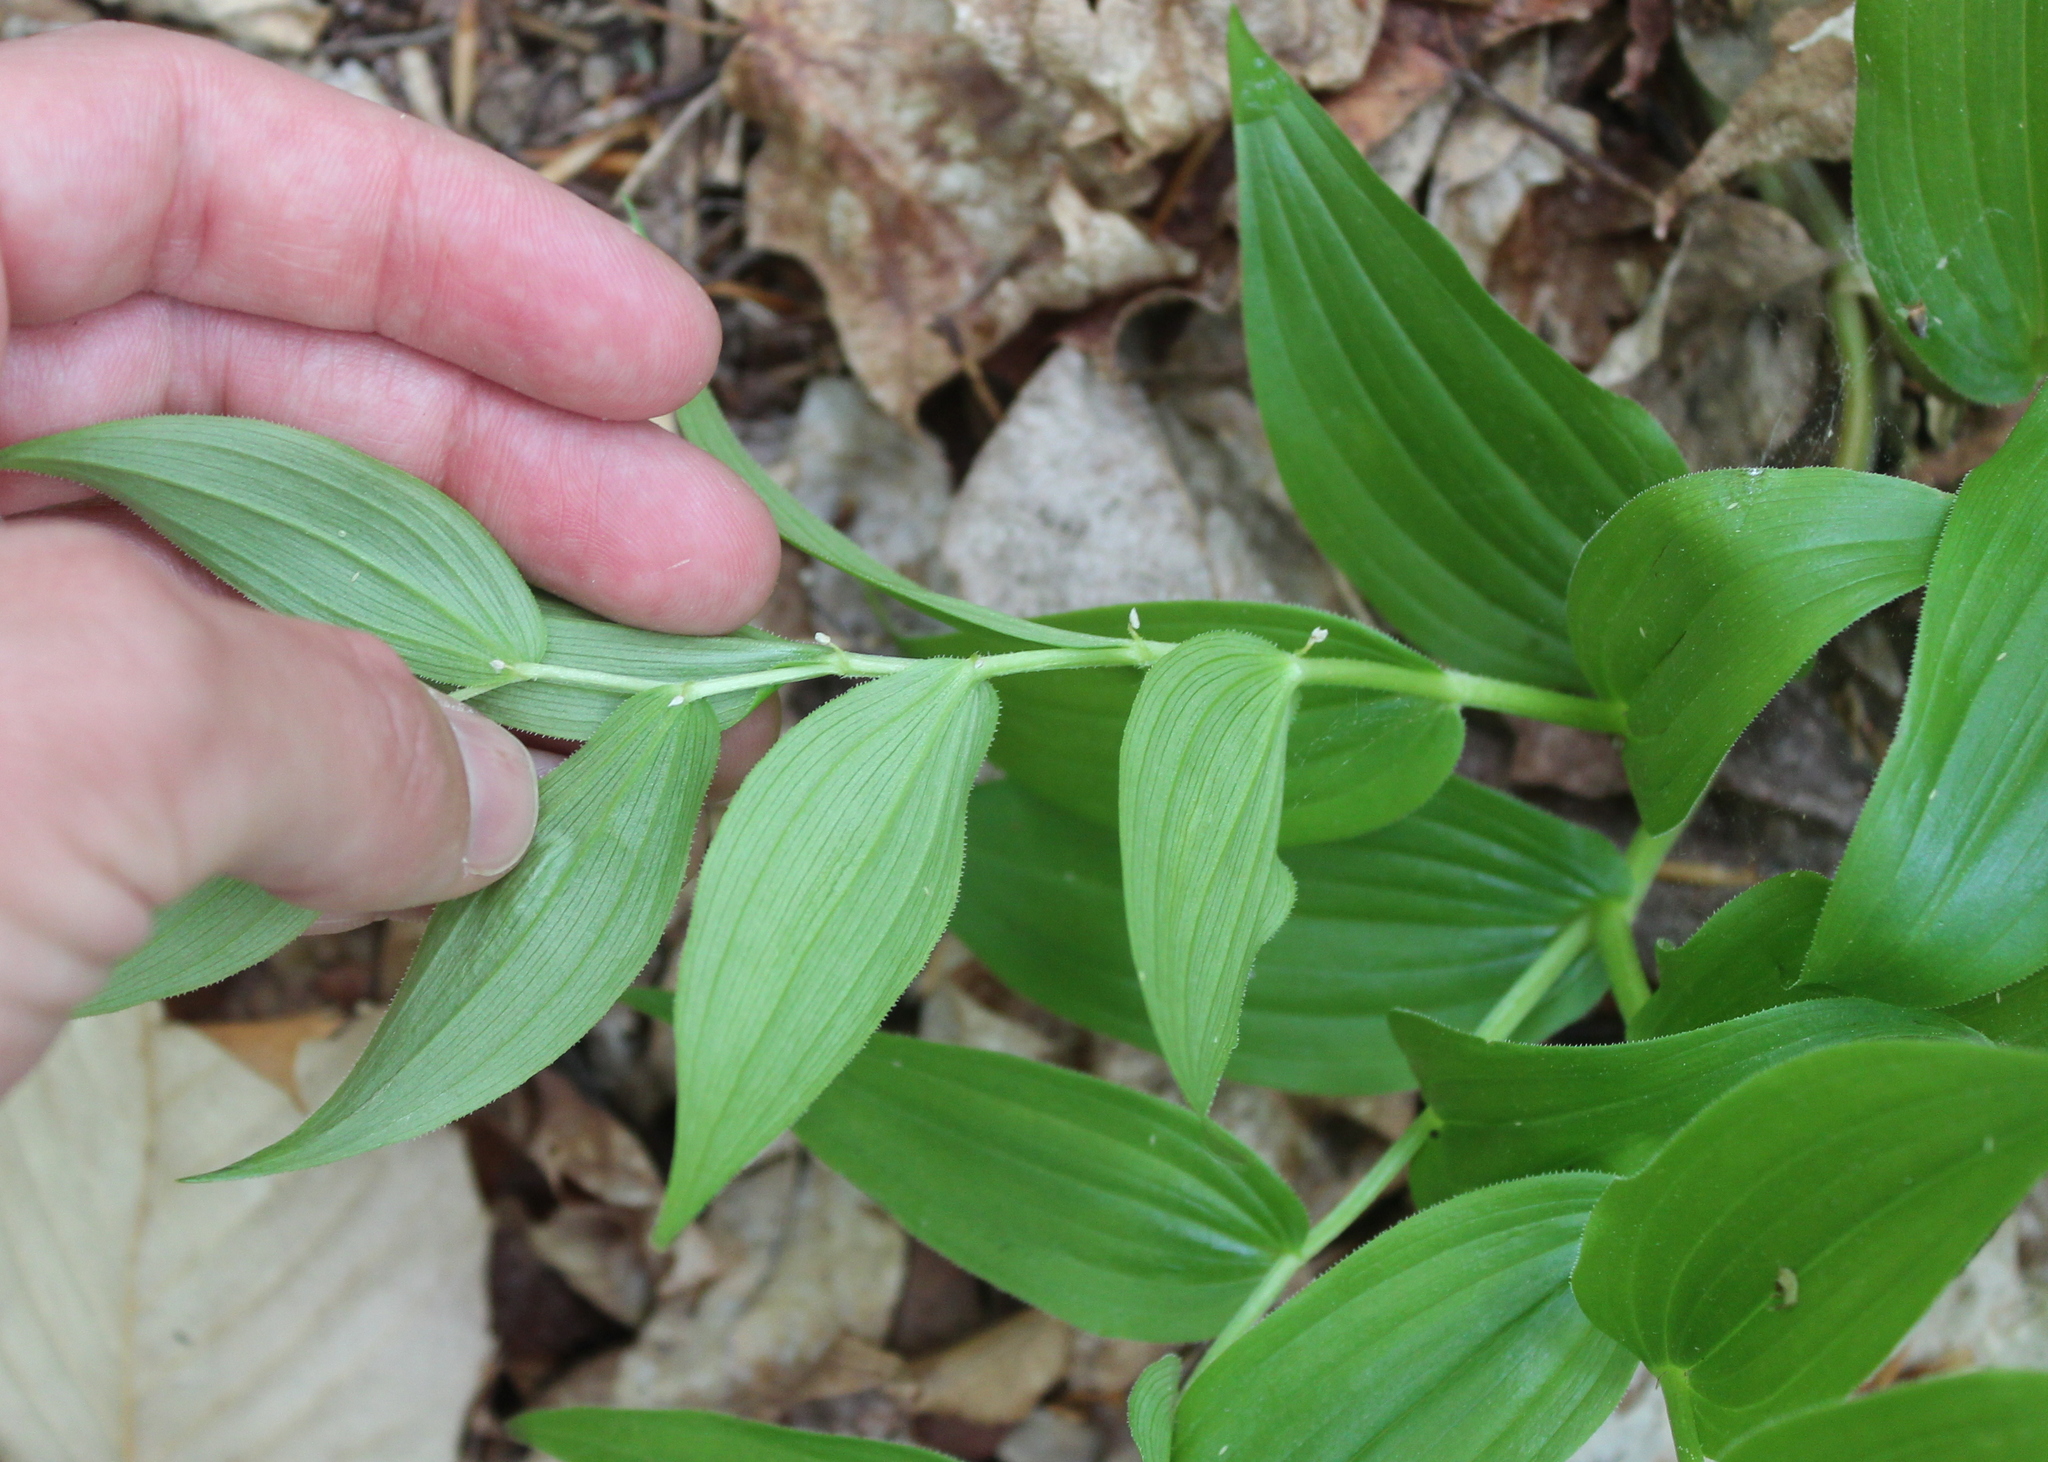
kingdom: Plantae
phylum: Tracheophyta
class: Liliopsida
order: Liliales
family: Liliaceae
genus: Streptopus
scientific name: Streptopus lanceolatus
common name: Rose mandarin
